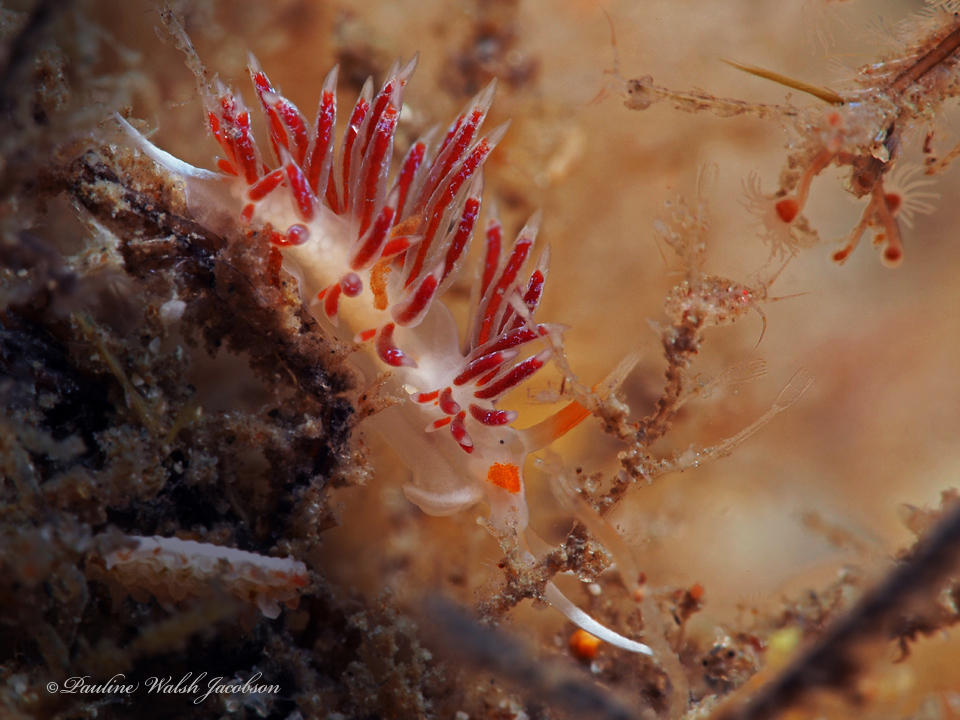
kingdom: Animalia
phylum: Mollusca
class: Gastropoda
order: Nudibranchia
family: Facelinidae
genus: Cratena
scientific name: Cratena minor
